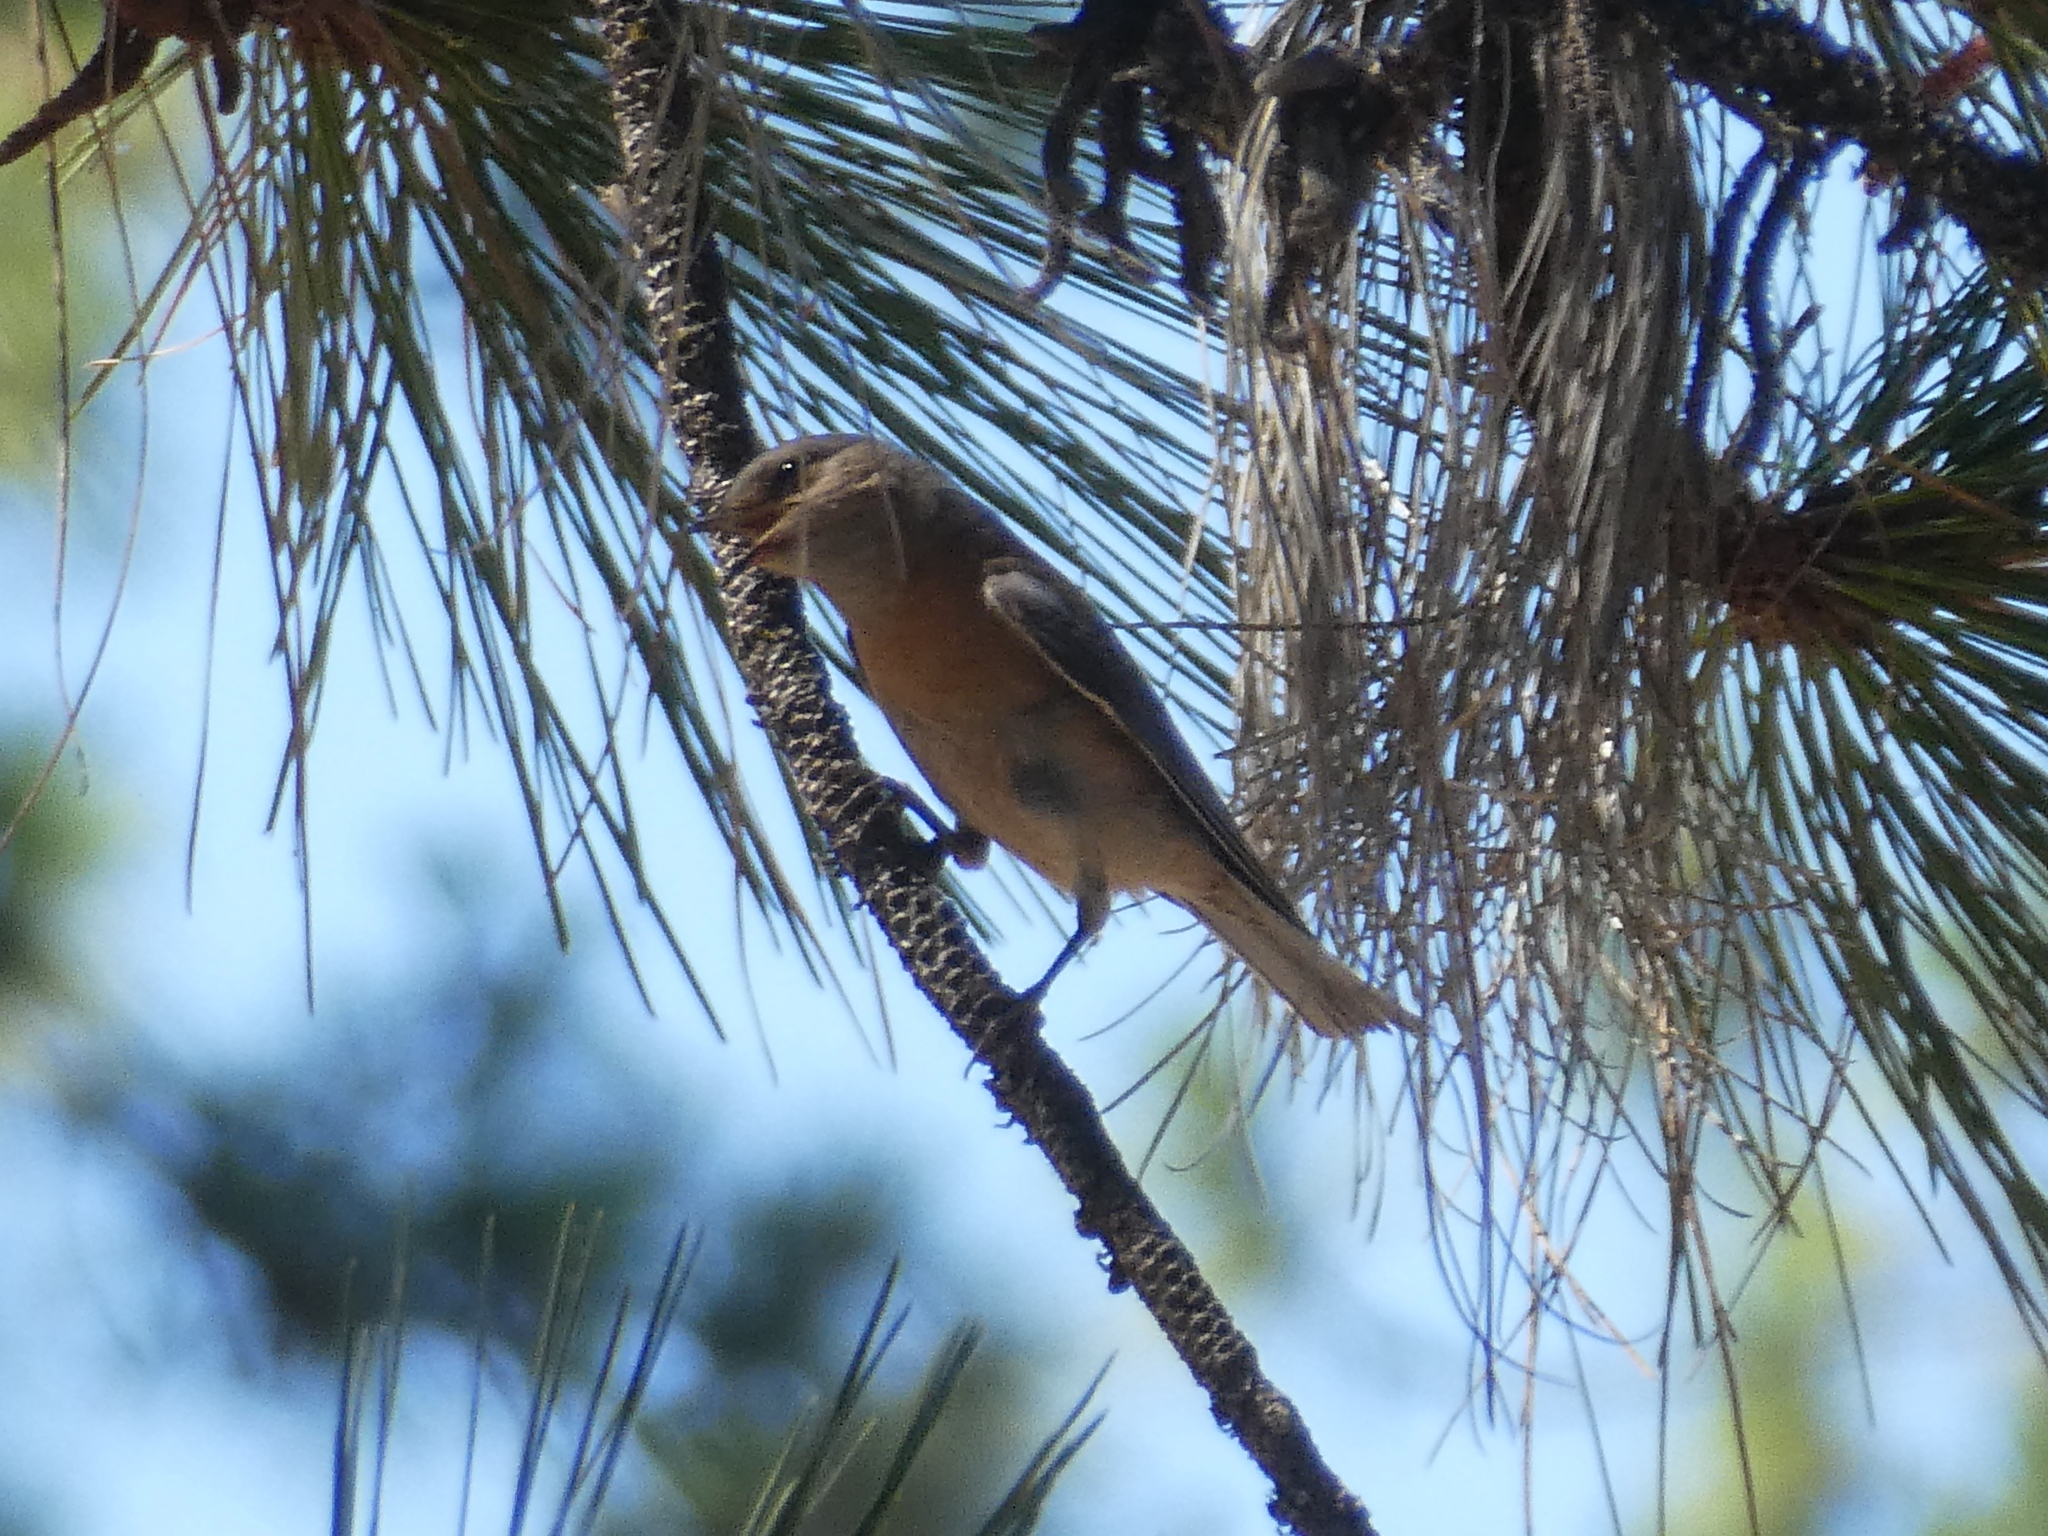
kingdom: Animalia
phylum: Chordata
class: Aves
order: Passeriformes
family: Turdidae
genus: Sialia
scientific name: Sialia mexicana
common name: Western bluebird
